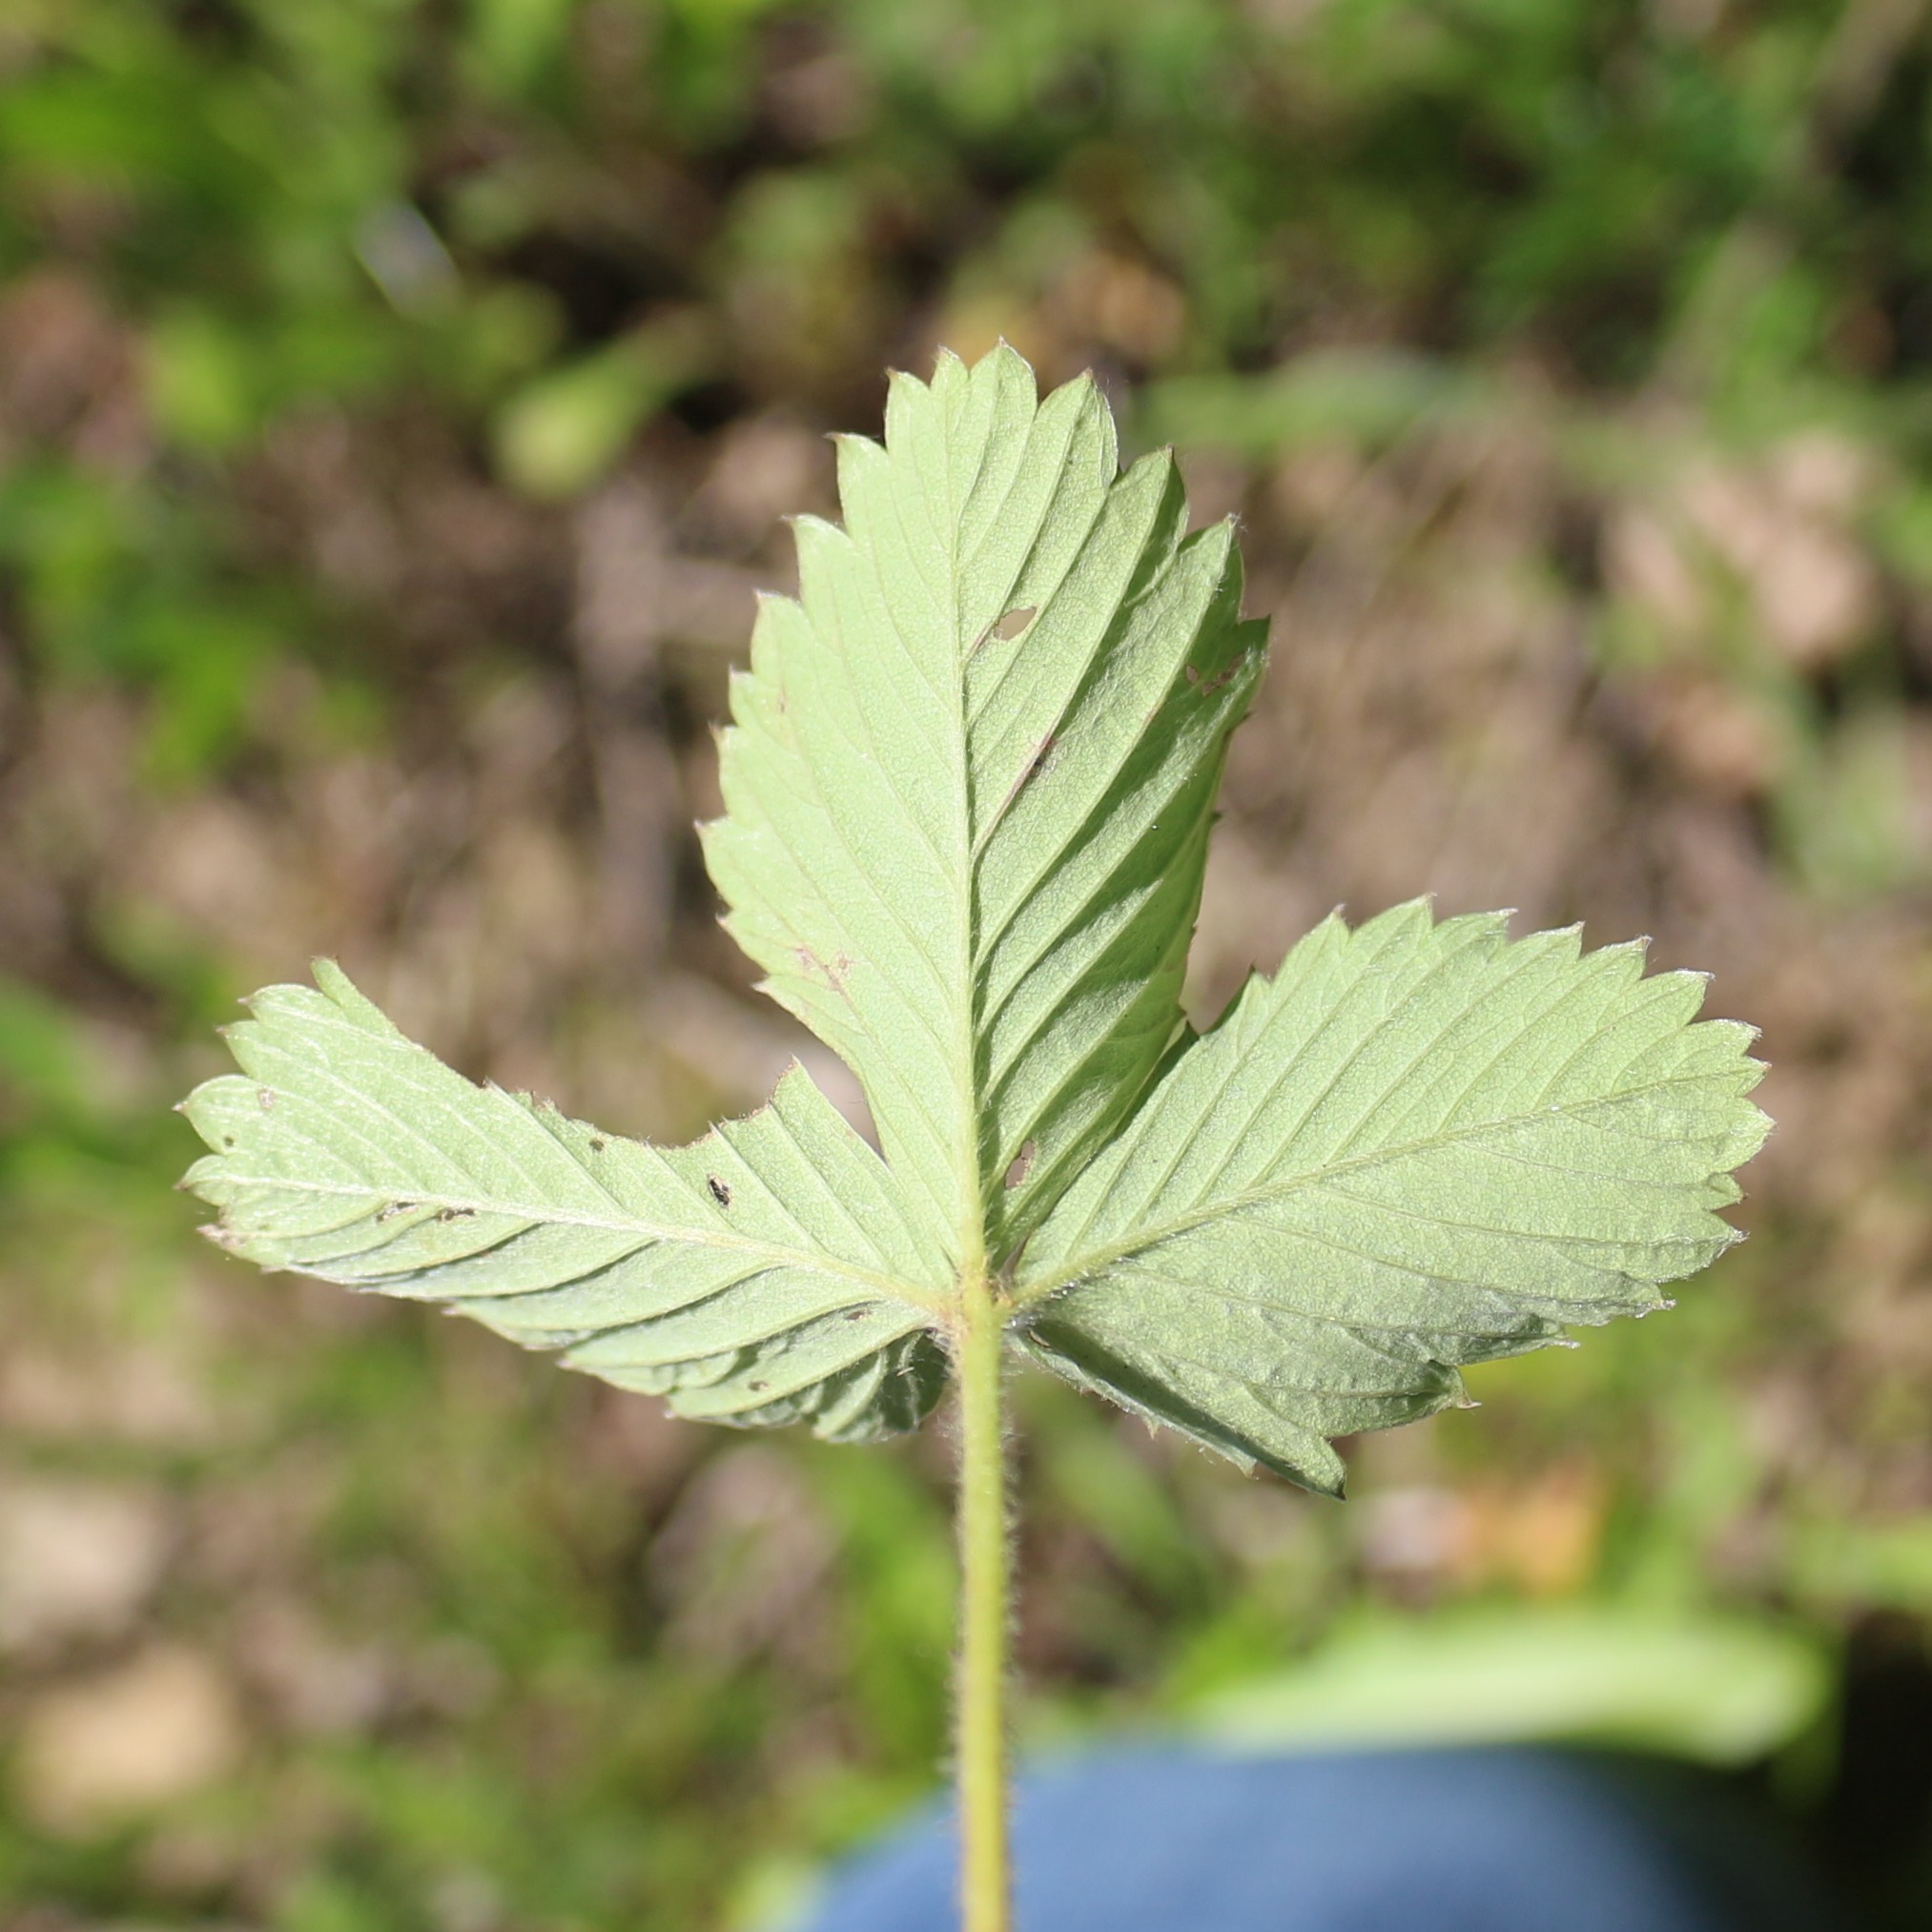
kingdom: Plantae
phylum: Tracheophyta
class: Magnoliopsida
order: Rosales
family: Rosaceae
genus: Fragaria
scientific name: Fragaria viridis
